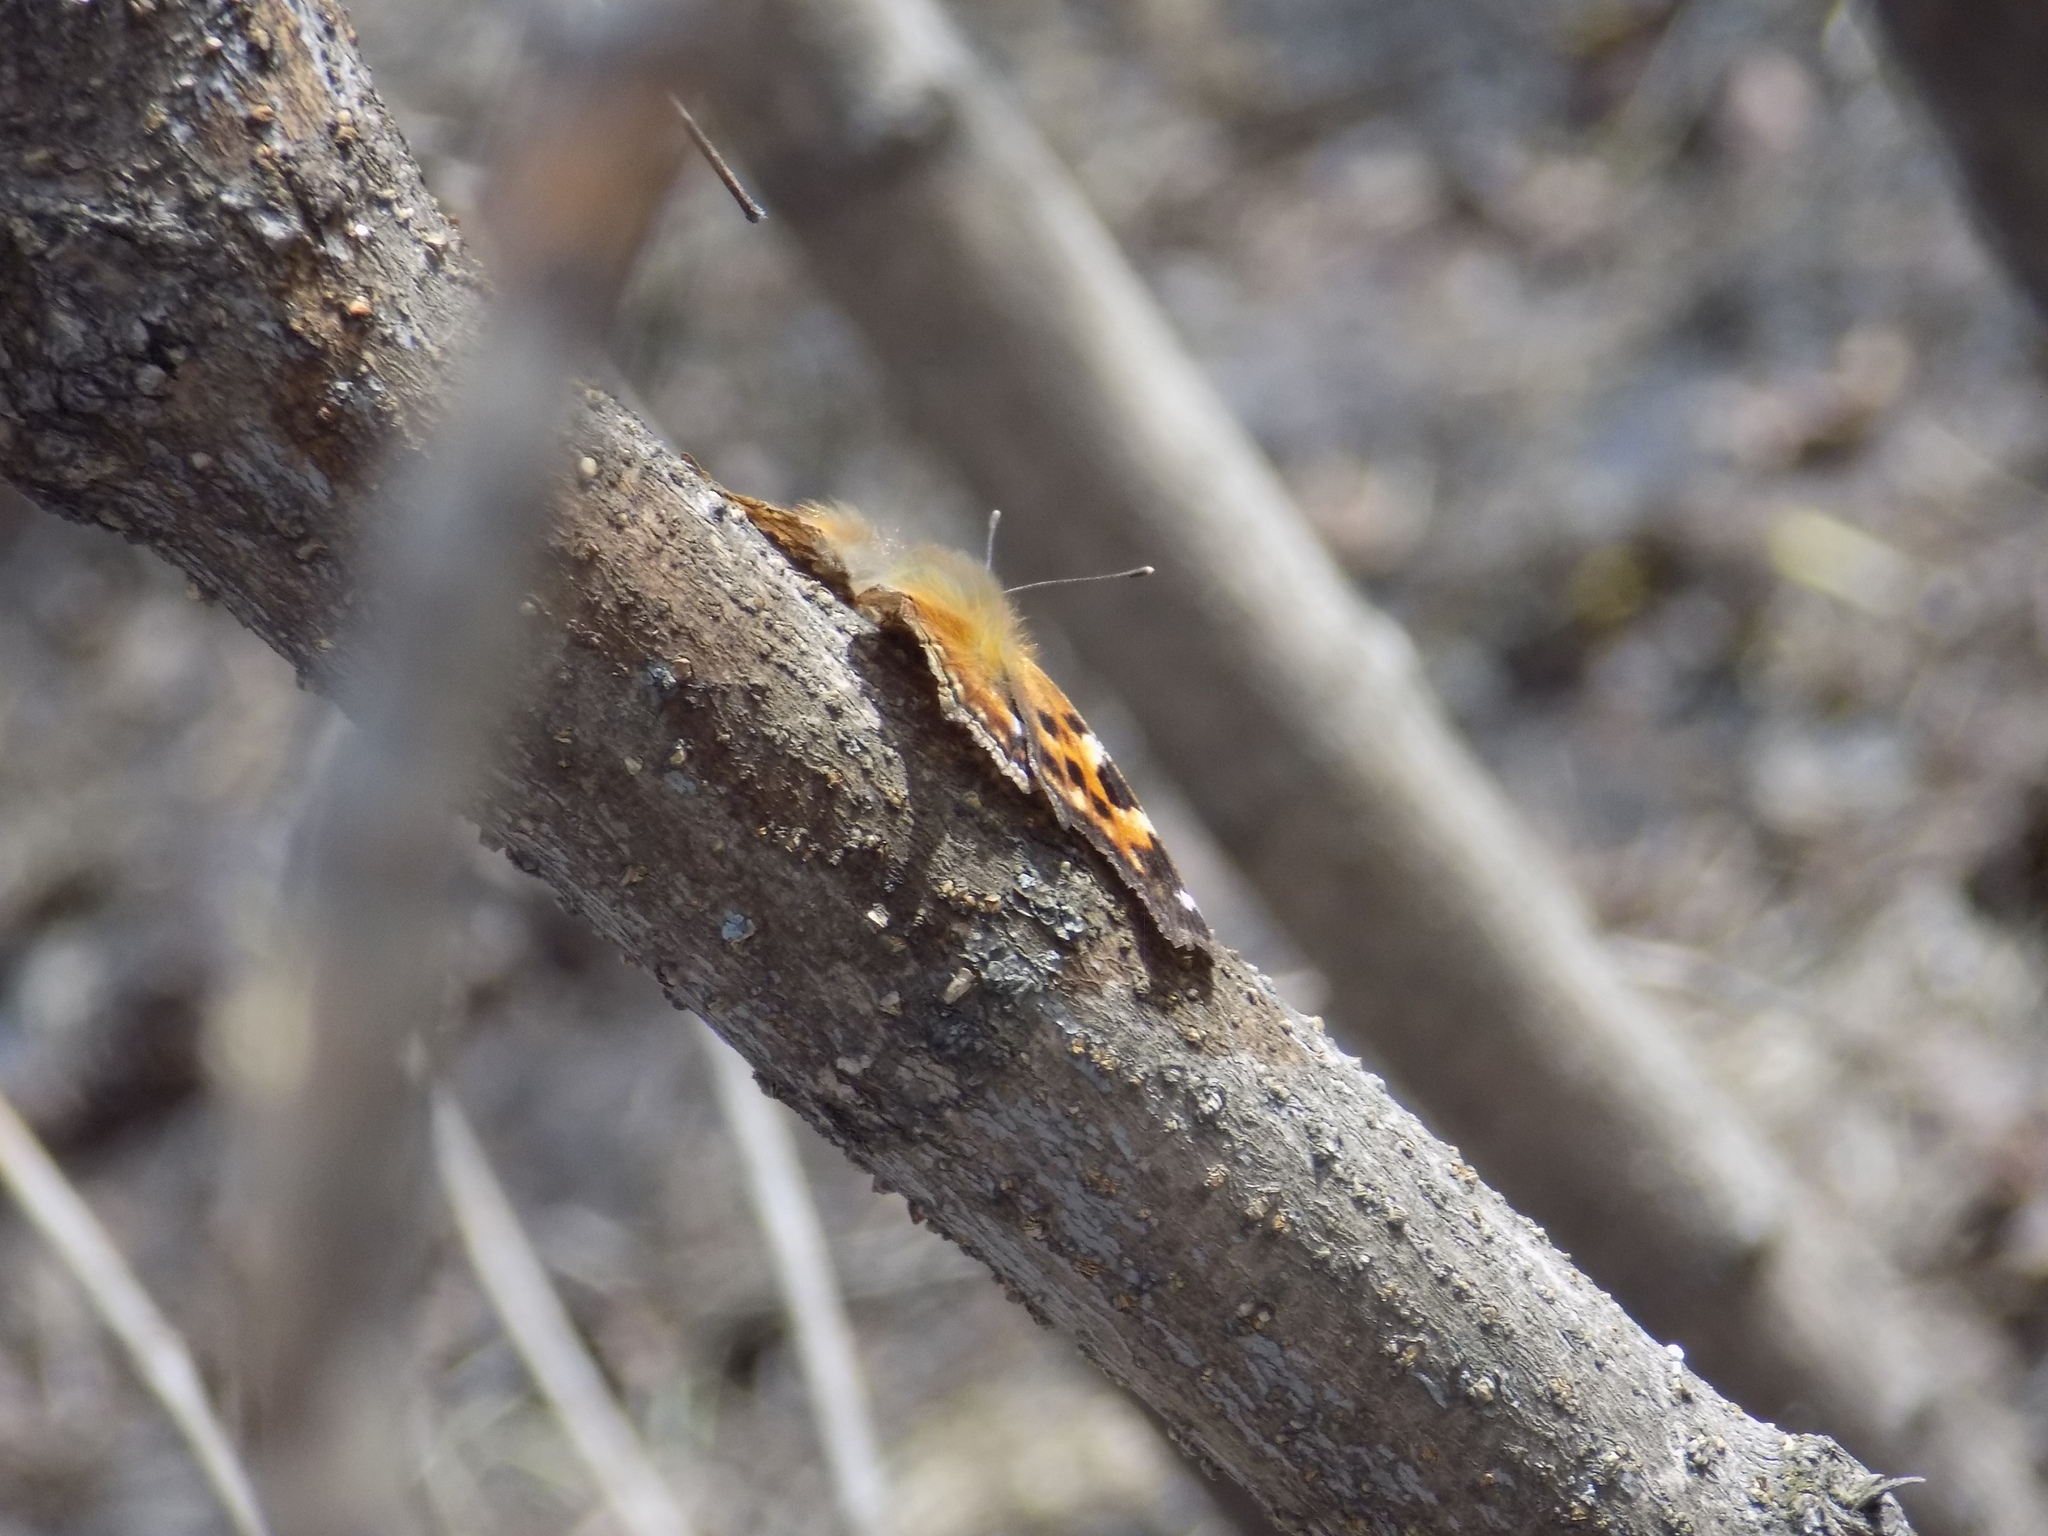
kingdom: Animalia
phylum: Arthropoda
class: Insecta
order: Lepidoptera
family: Nymphalidae
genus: Polygonia
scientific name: Polygonia vaualbum
